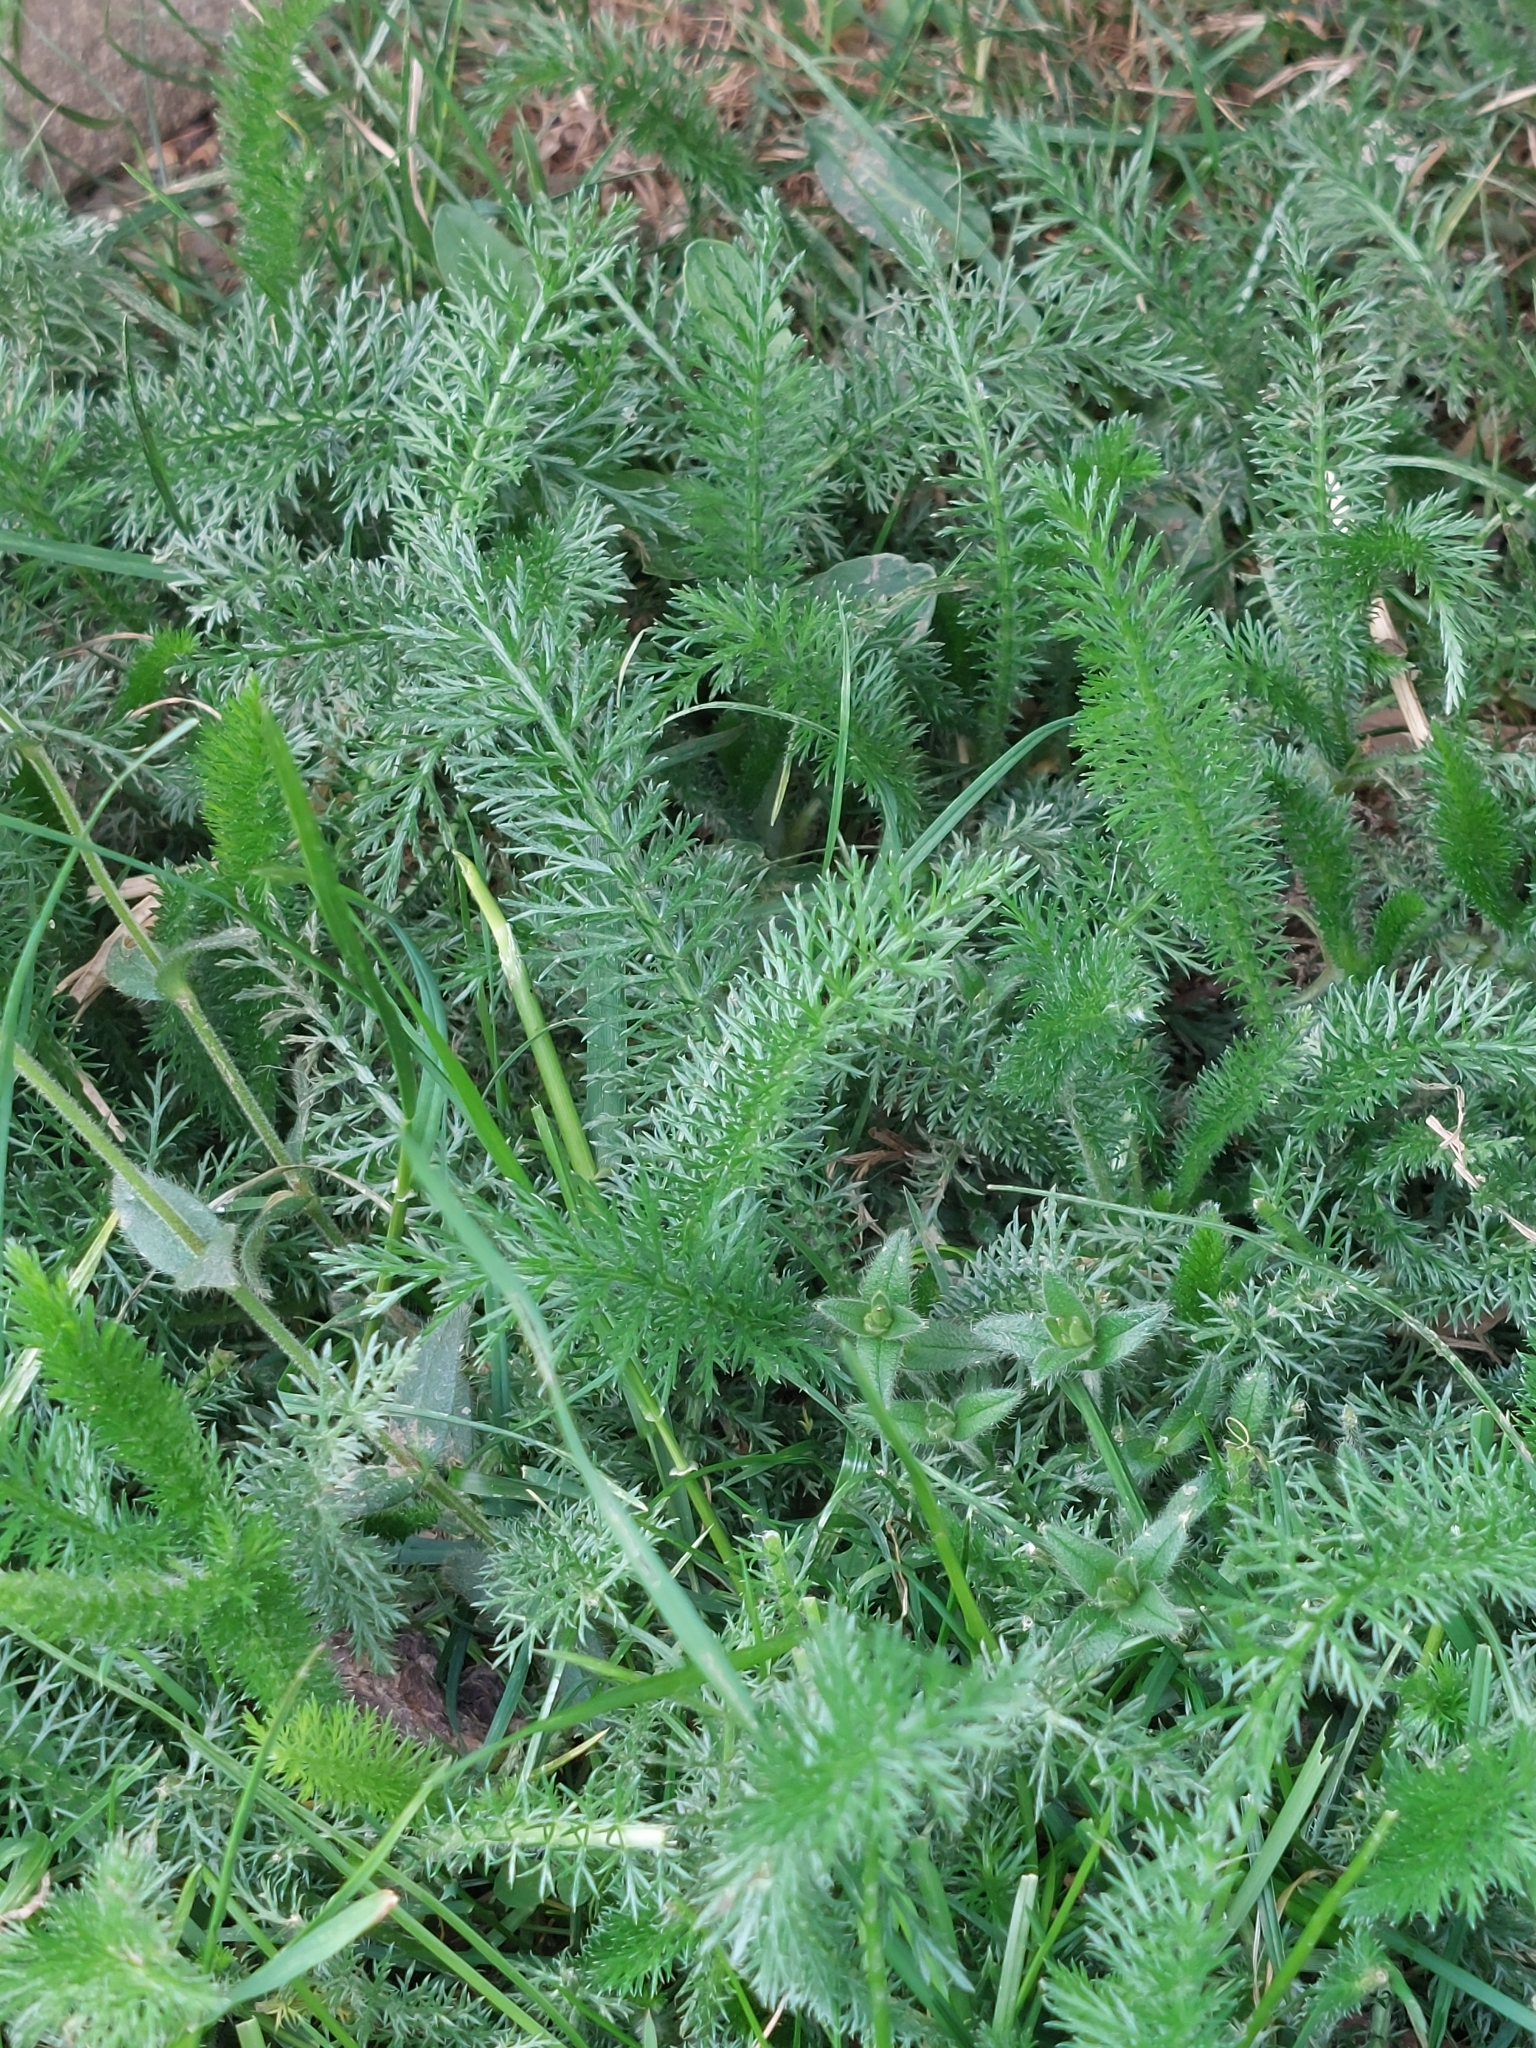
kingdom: Plantae
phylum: Tracheophyta
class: Magnoliopsida
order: Asterales
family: Asteraceae
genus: Achillea
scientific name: Achillea millefolium
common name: Yarrow
